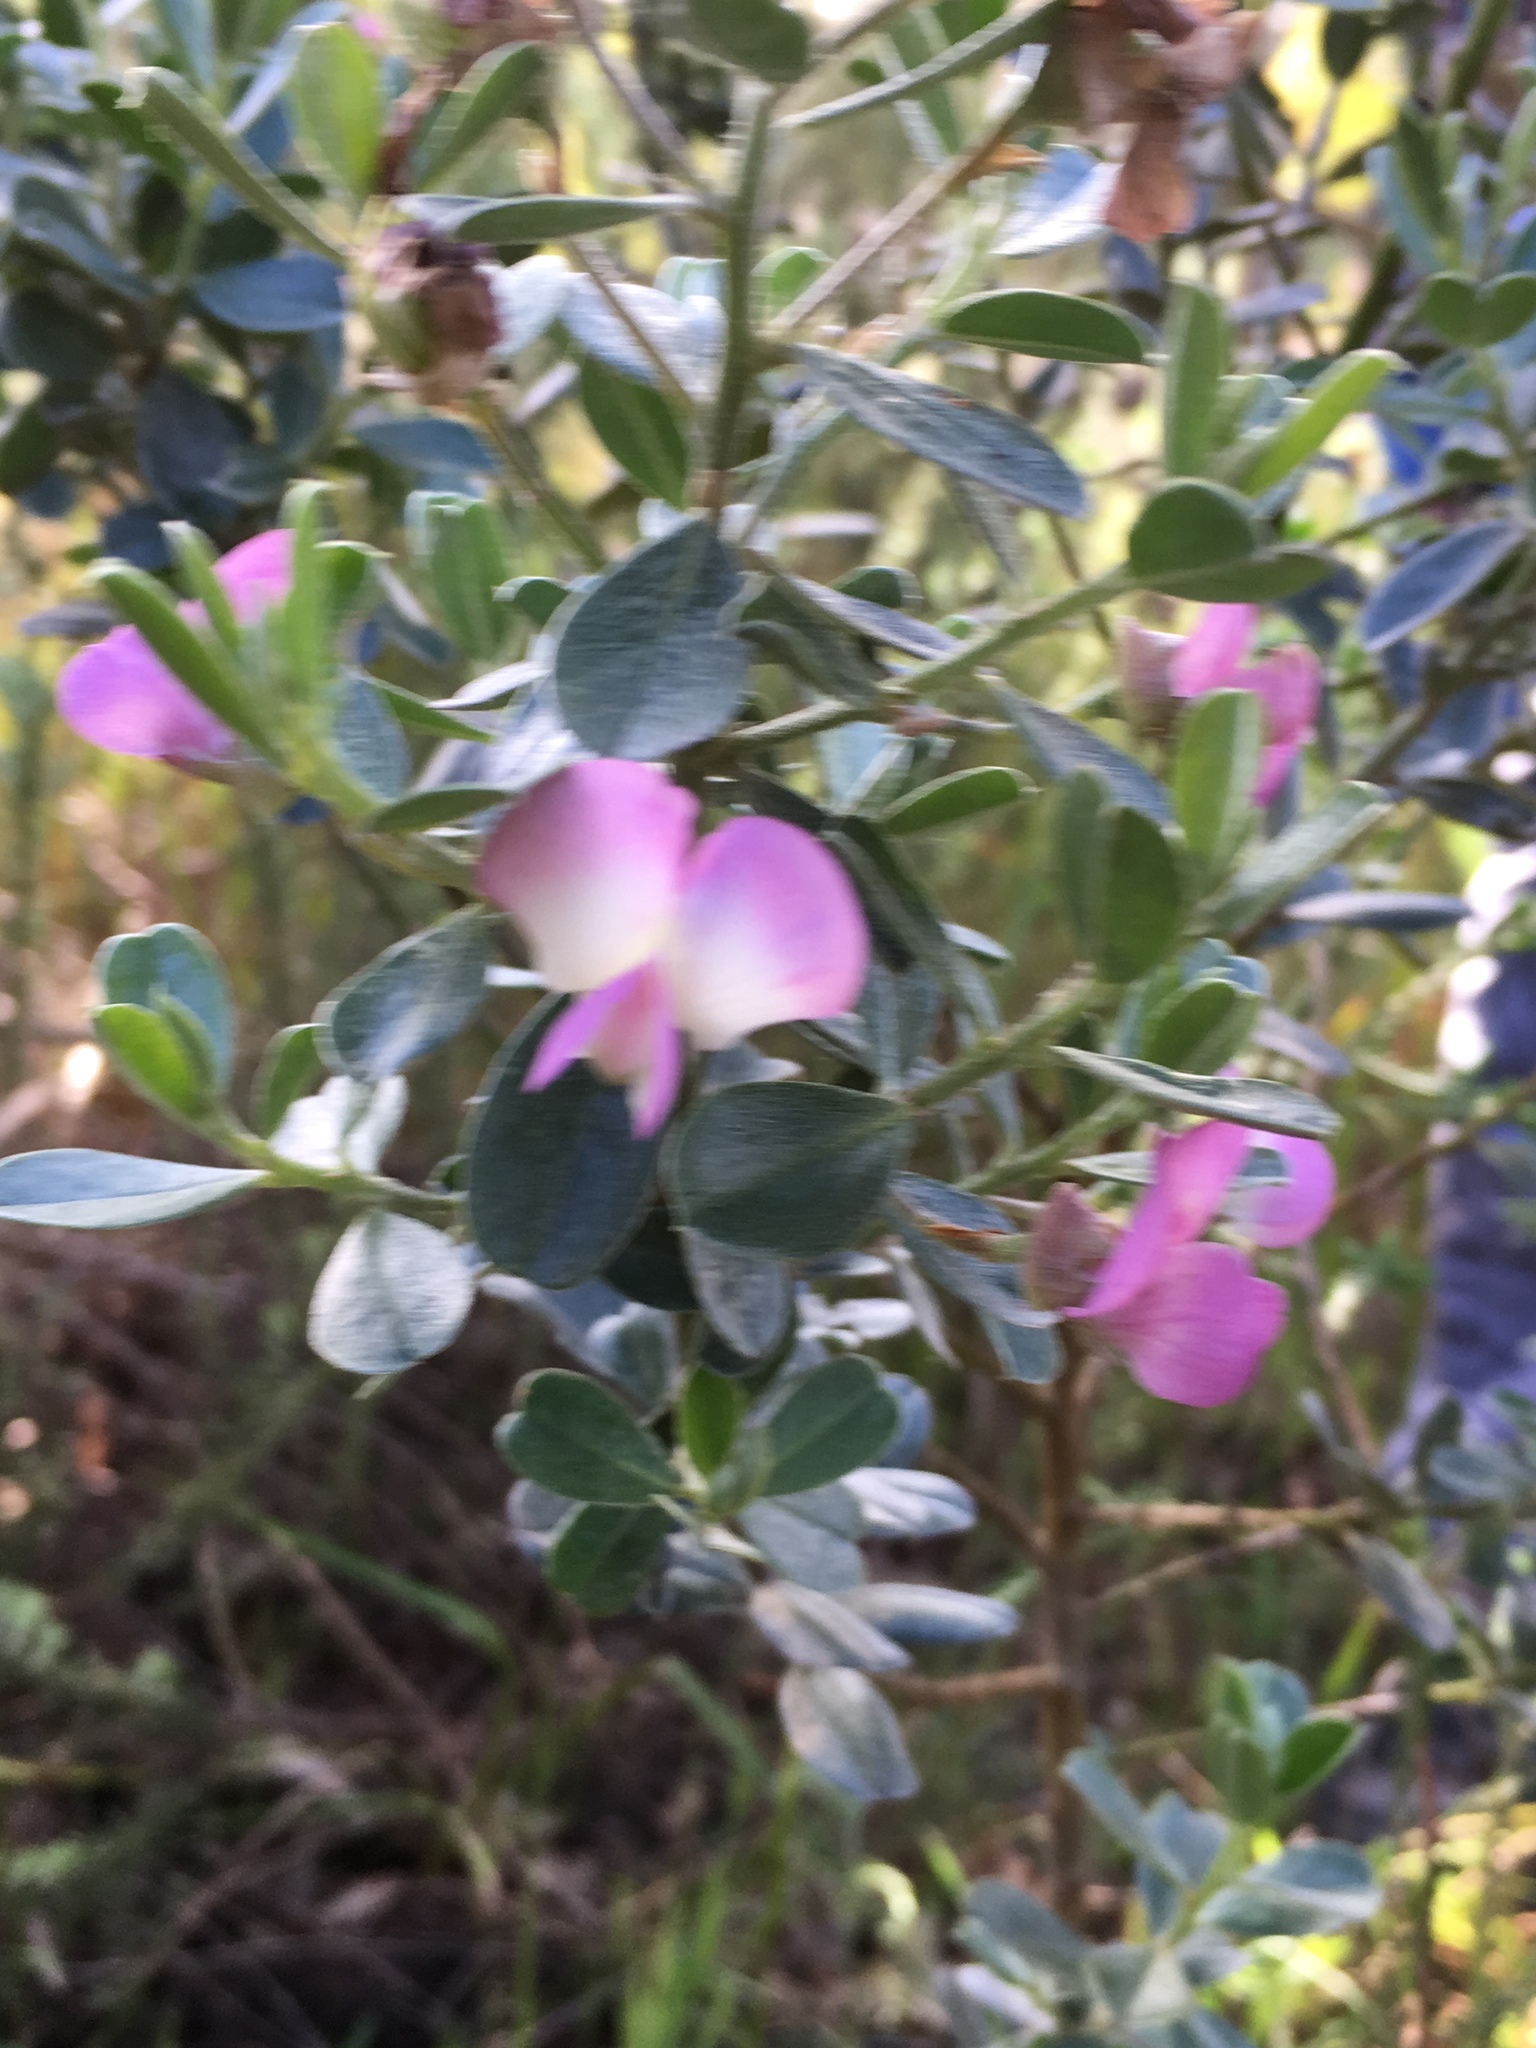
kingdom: Plantae
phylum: Tracheophyta
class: Magnoliopsida
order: Fabales
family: Fabaceae
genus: Podalyria
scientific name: Podalyria myrtillifolia
